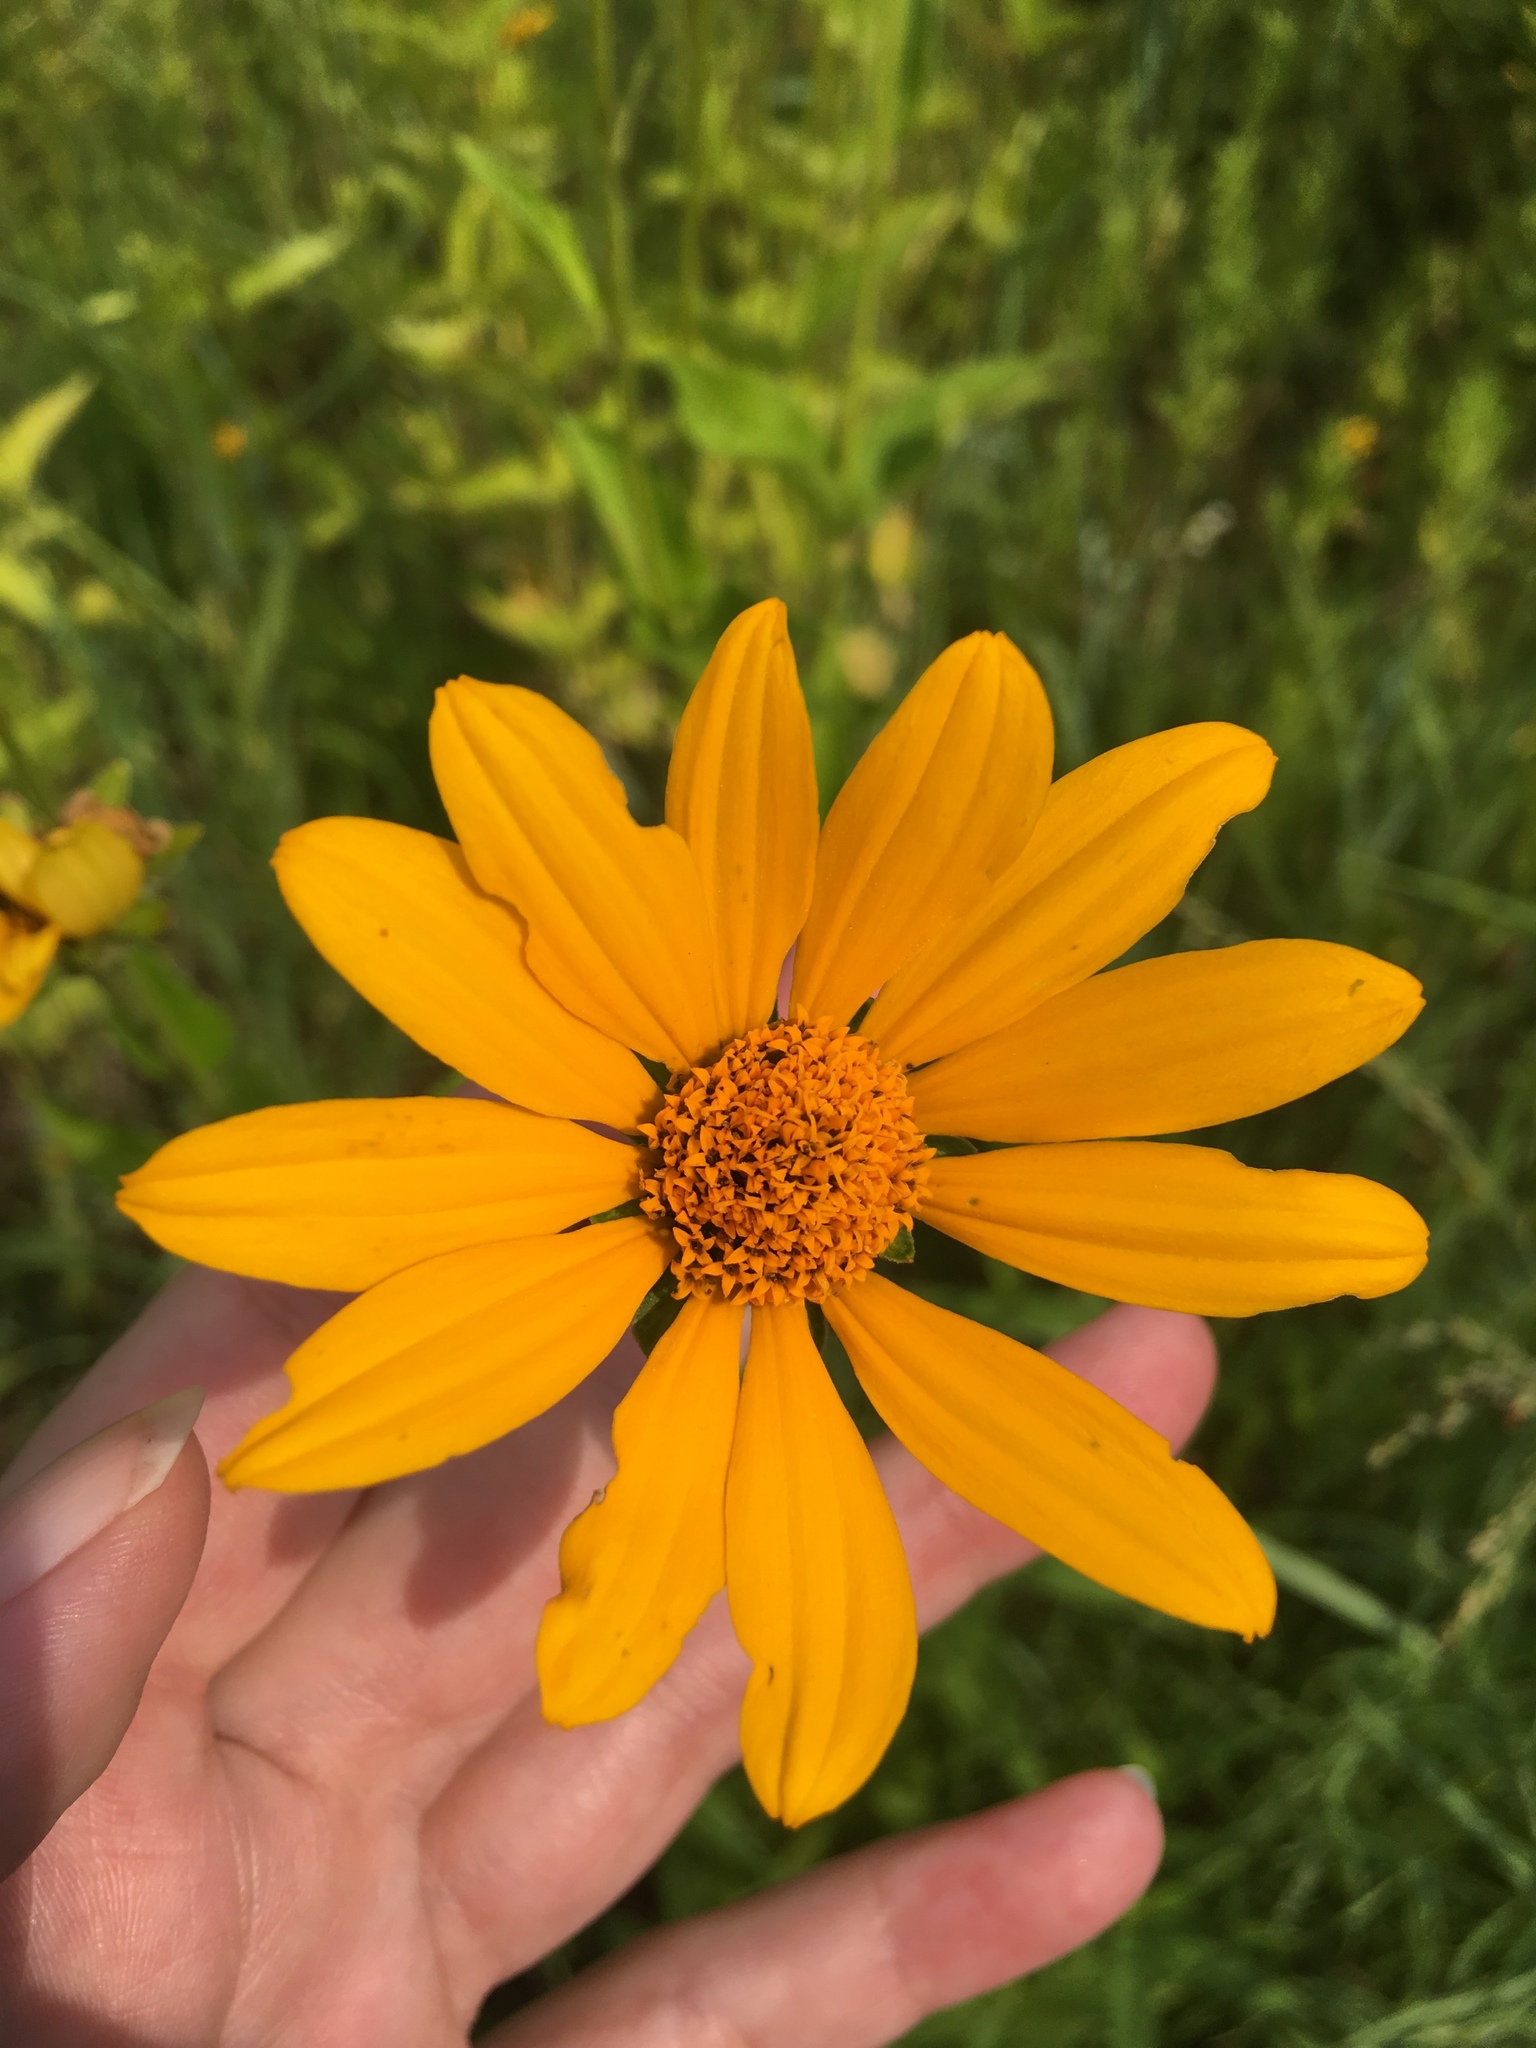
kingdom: Plantae
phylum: Tracheophyta
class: Magnoliopsida
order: Asterales
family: Asteraceae
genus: Heliopsis
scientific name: Heliopsis helianthoides
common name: False sunflower
